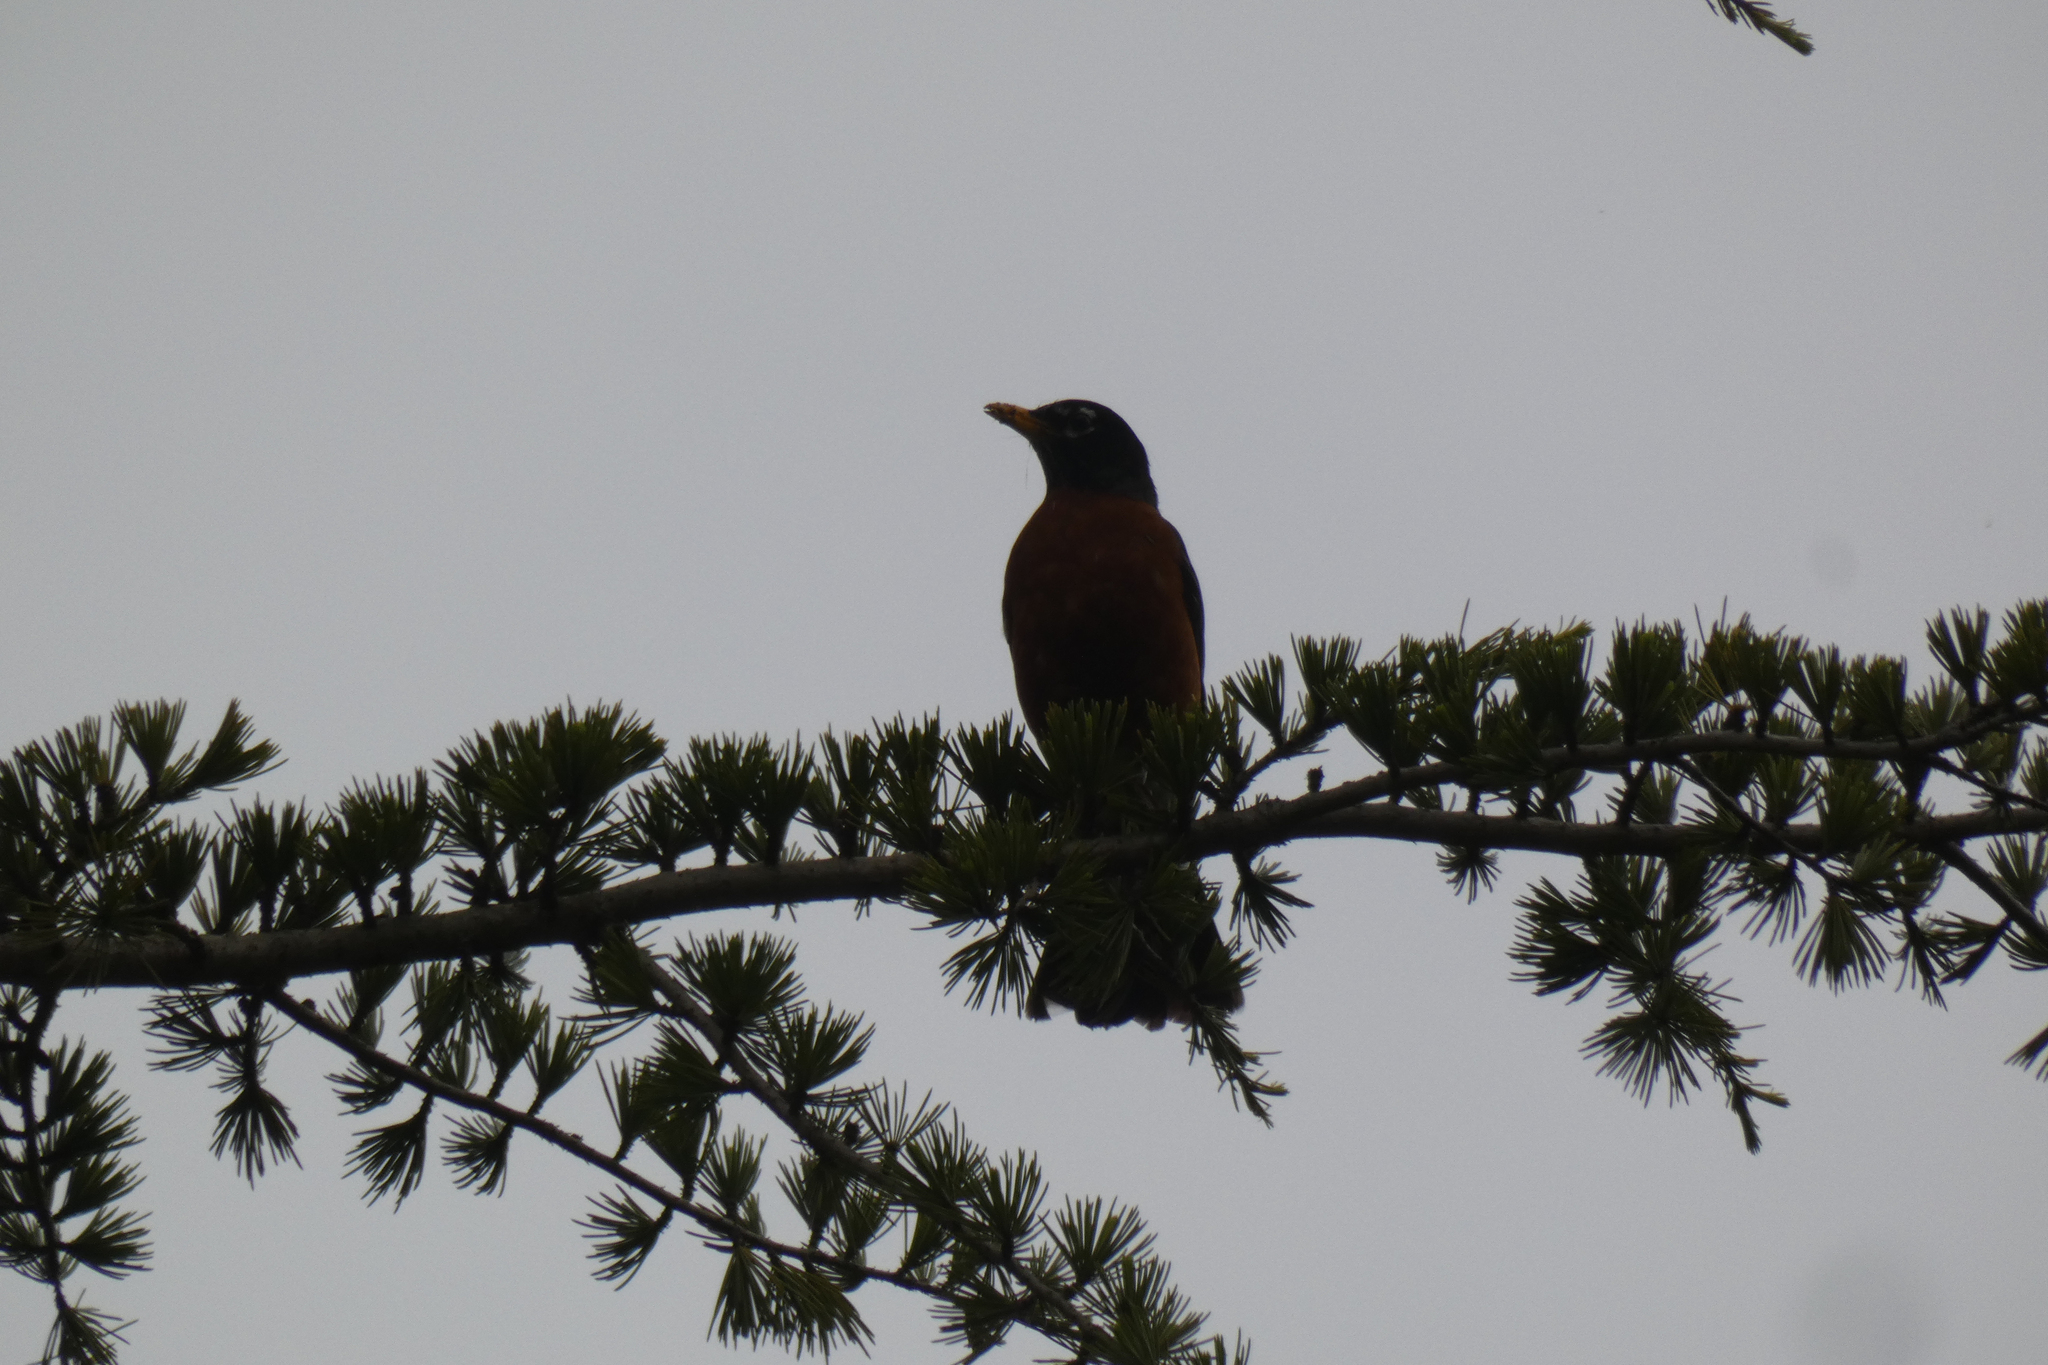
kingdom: Animalia
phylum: Chordata
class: Aves
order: Passeriformes
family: Turdidae
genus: Turdus
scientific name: Turdus migratorius
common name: American robin
